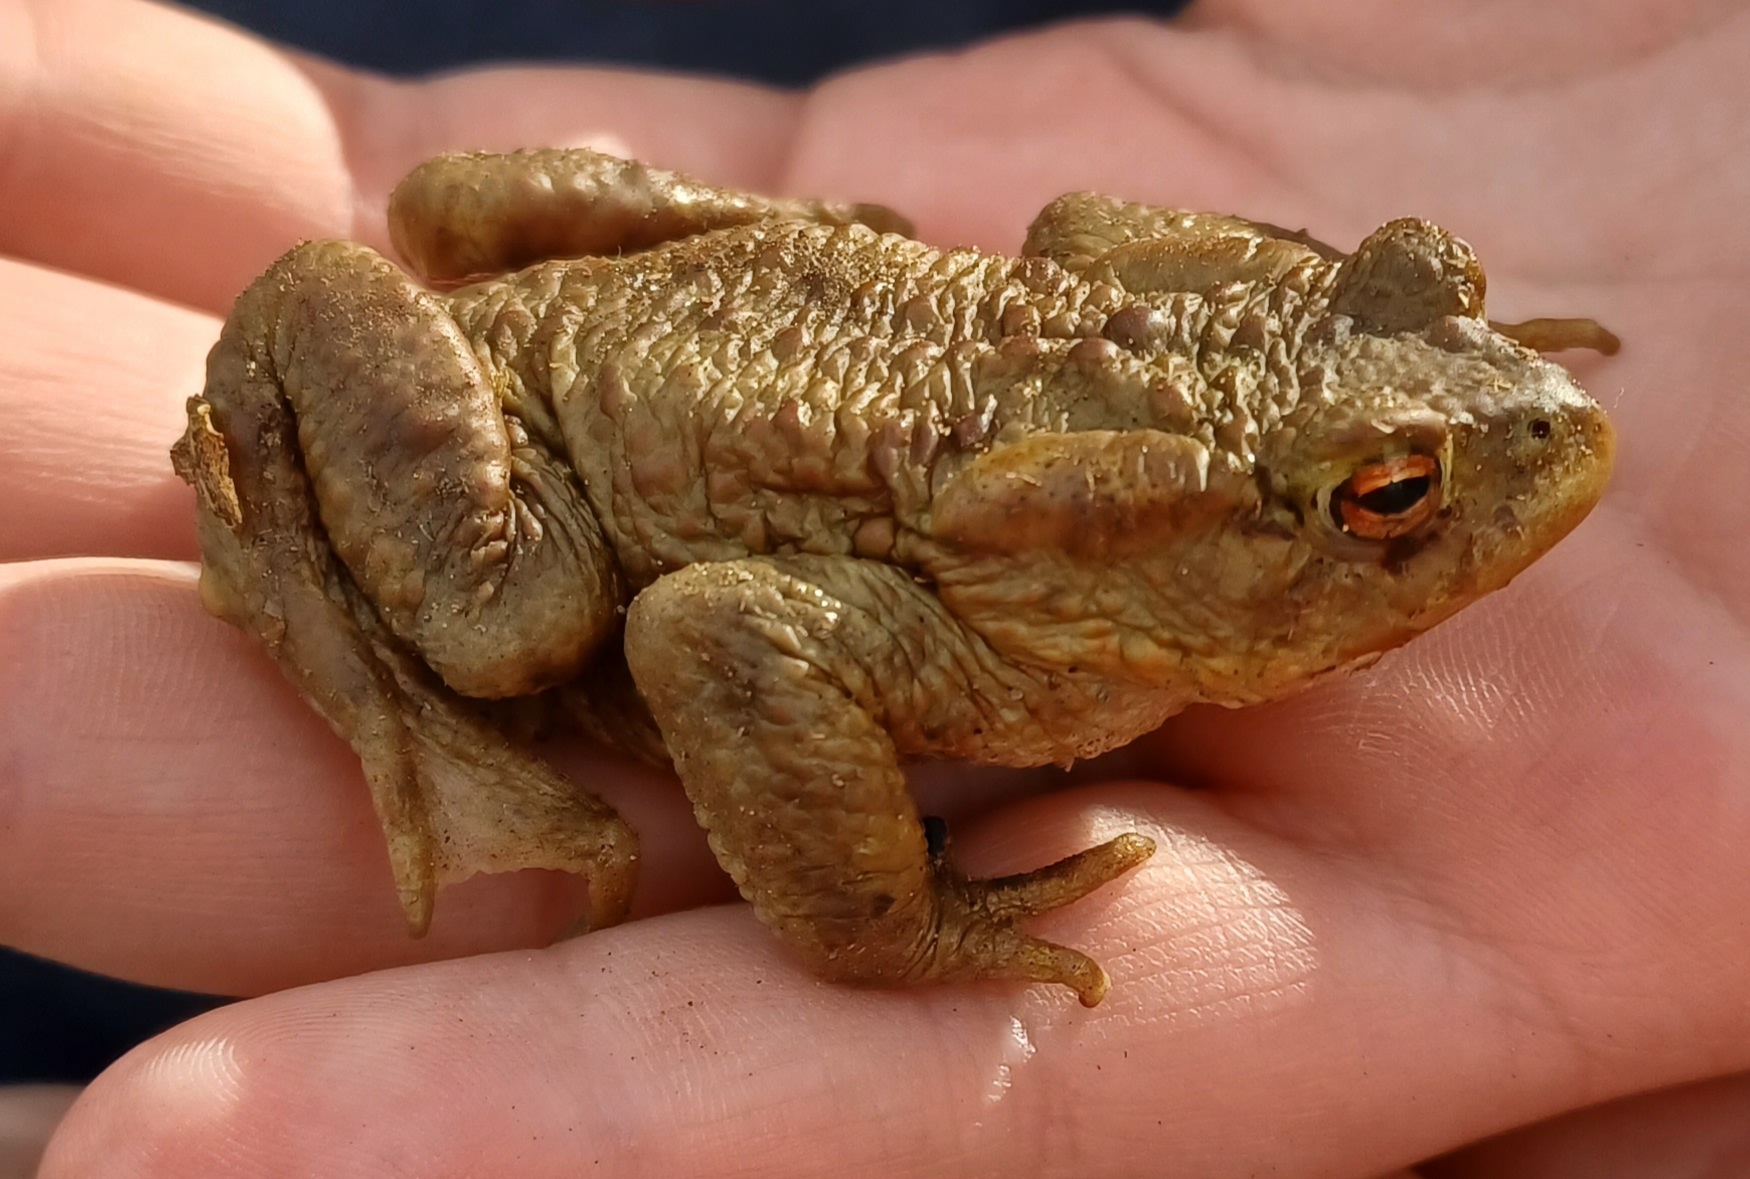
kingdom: Animalia
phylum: Chordata
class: Amphibia
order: Anura
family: Bufonidae
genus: Bufo
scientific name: Bufo bufo
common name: Common toad
